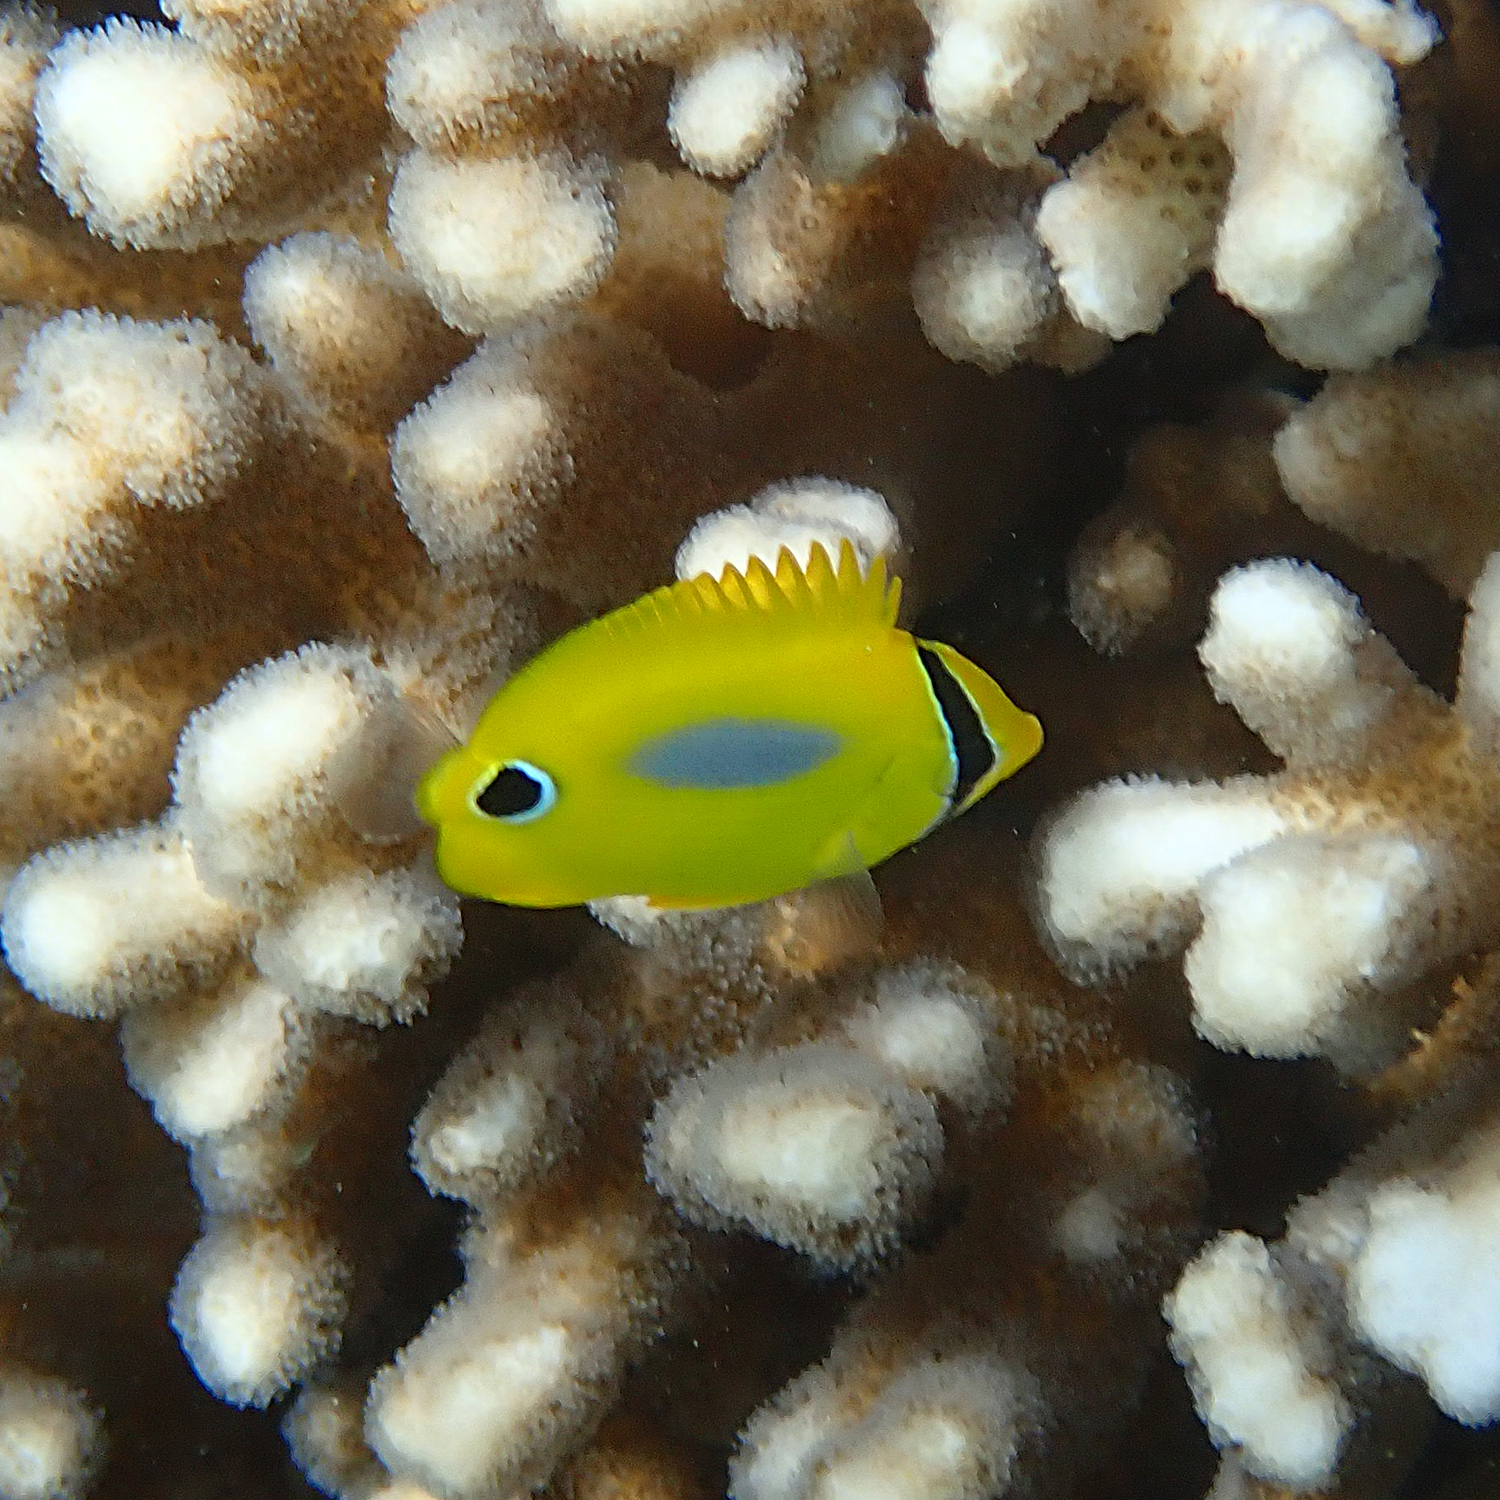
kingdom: Animalia
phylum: Chordata
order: Perciformes
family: Chaetodontidae
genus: Chaetodon
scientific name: Chaetodon plebeius
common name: Bluespot butterflyfish
